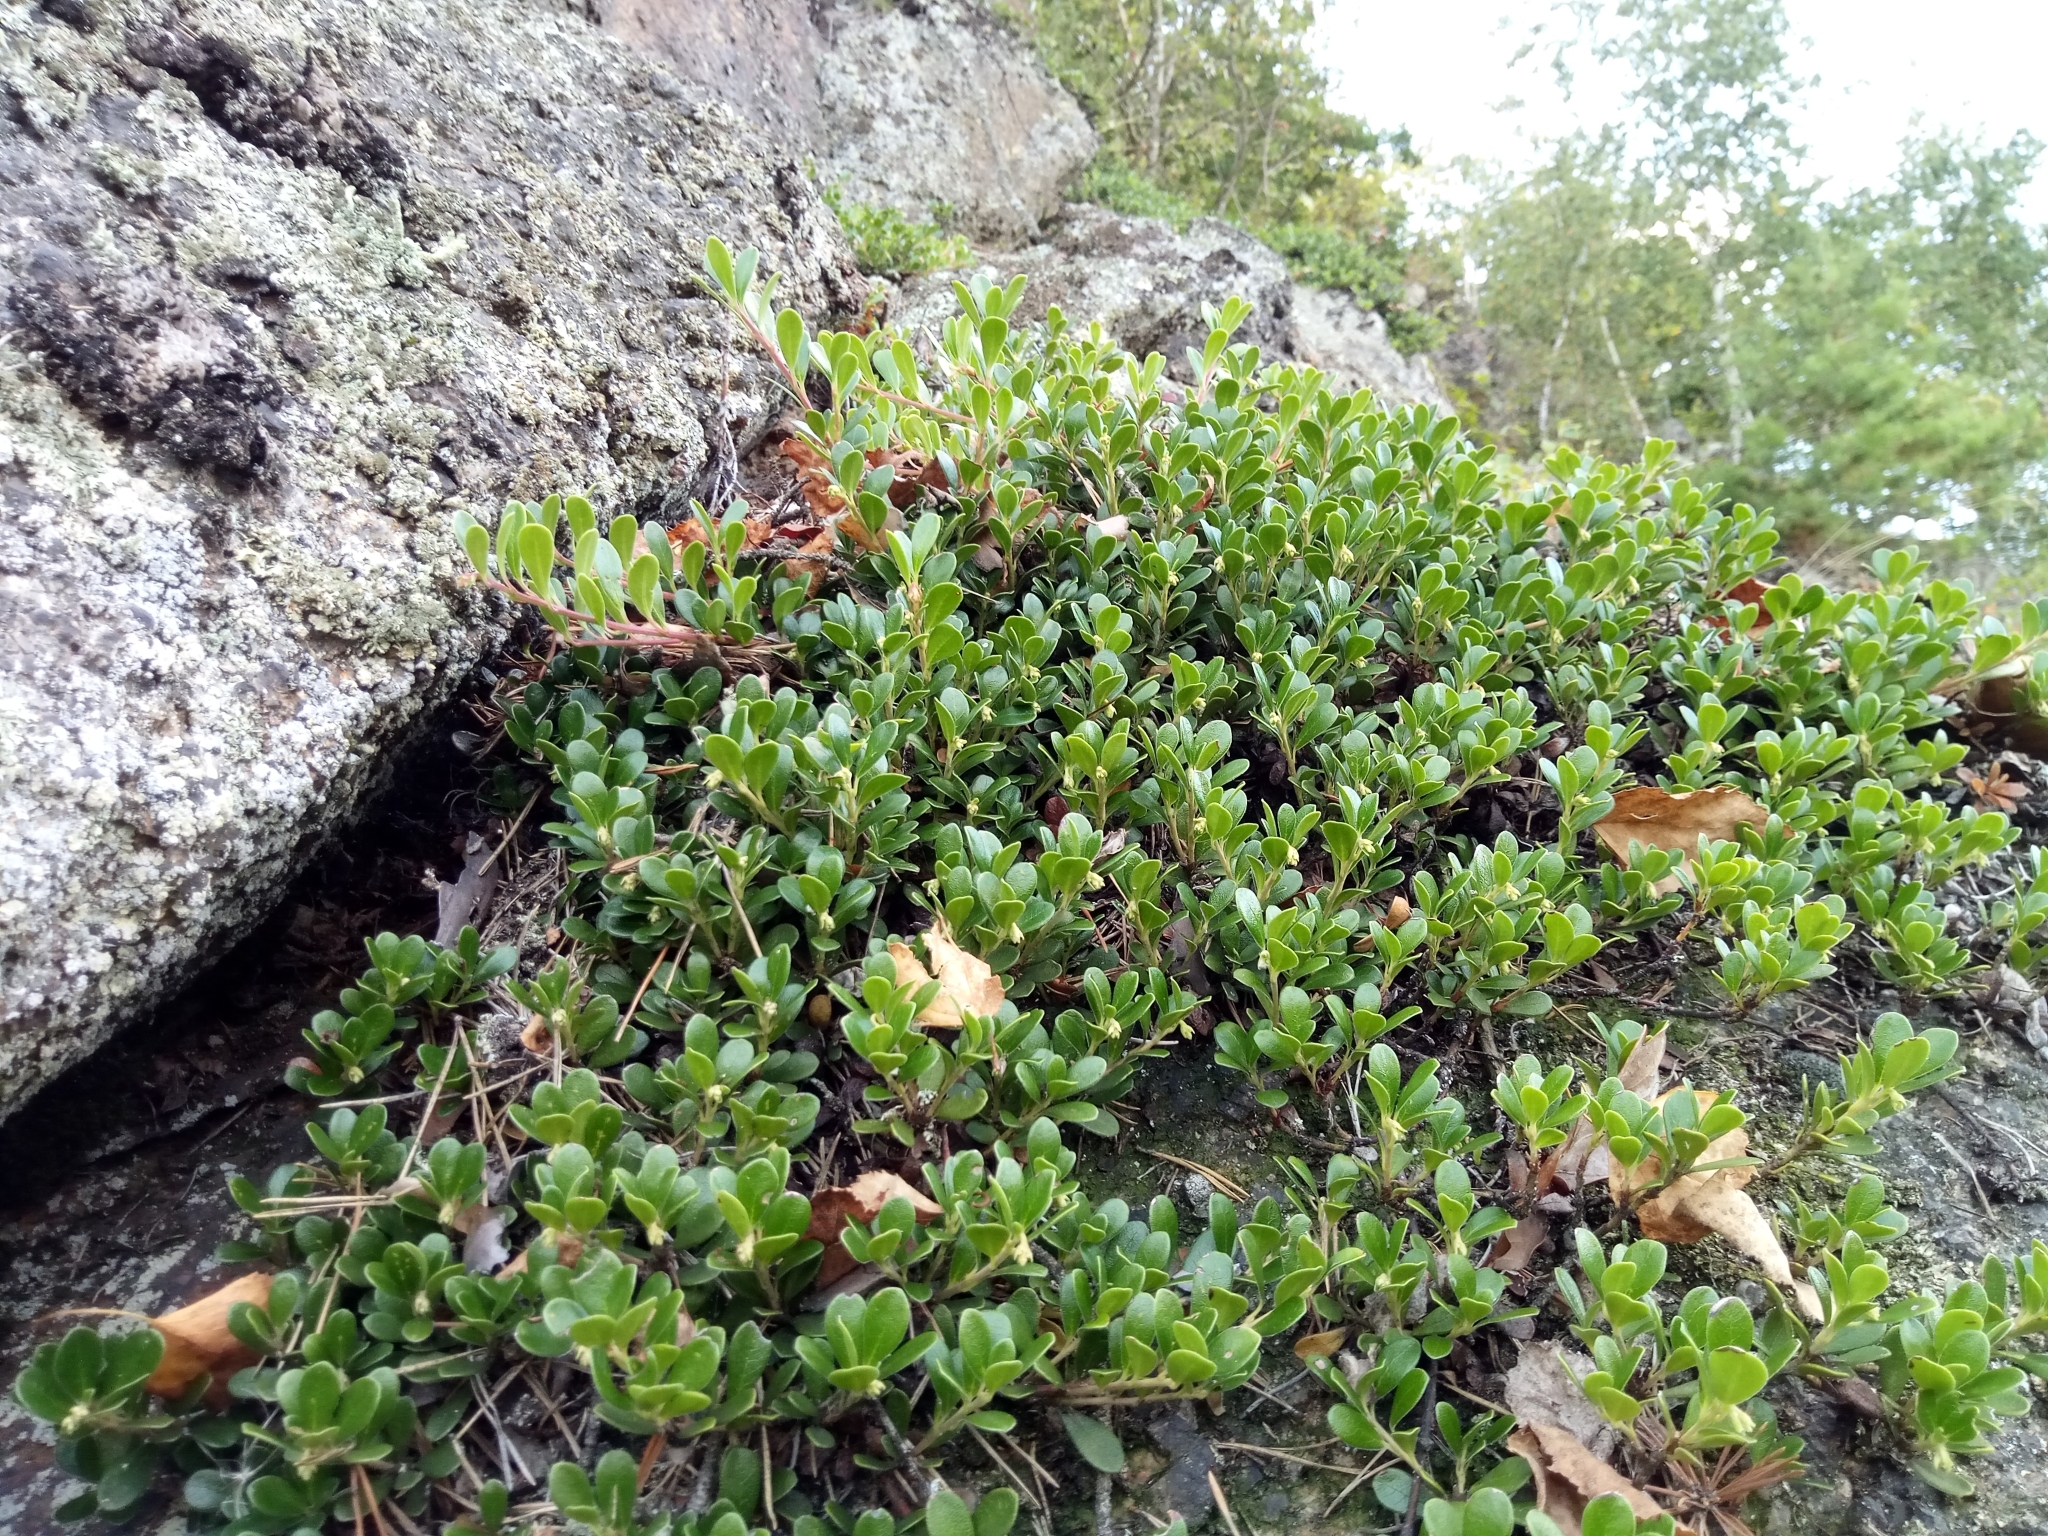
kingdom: Plantae
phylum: Tracheophyta
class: Magnoliopsida
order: Ericales
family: Ericaceae
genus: Arctostaphylos
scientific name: Arctostaphylos uva-ursi
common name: Bearberry
